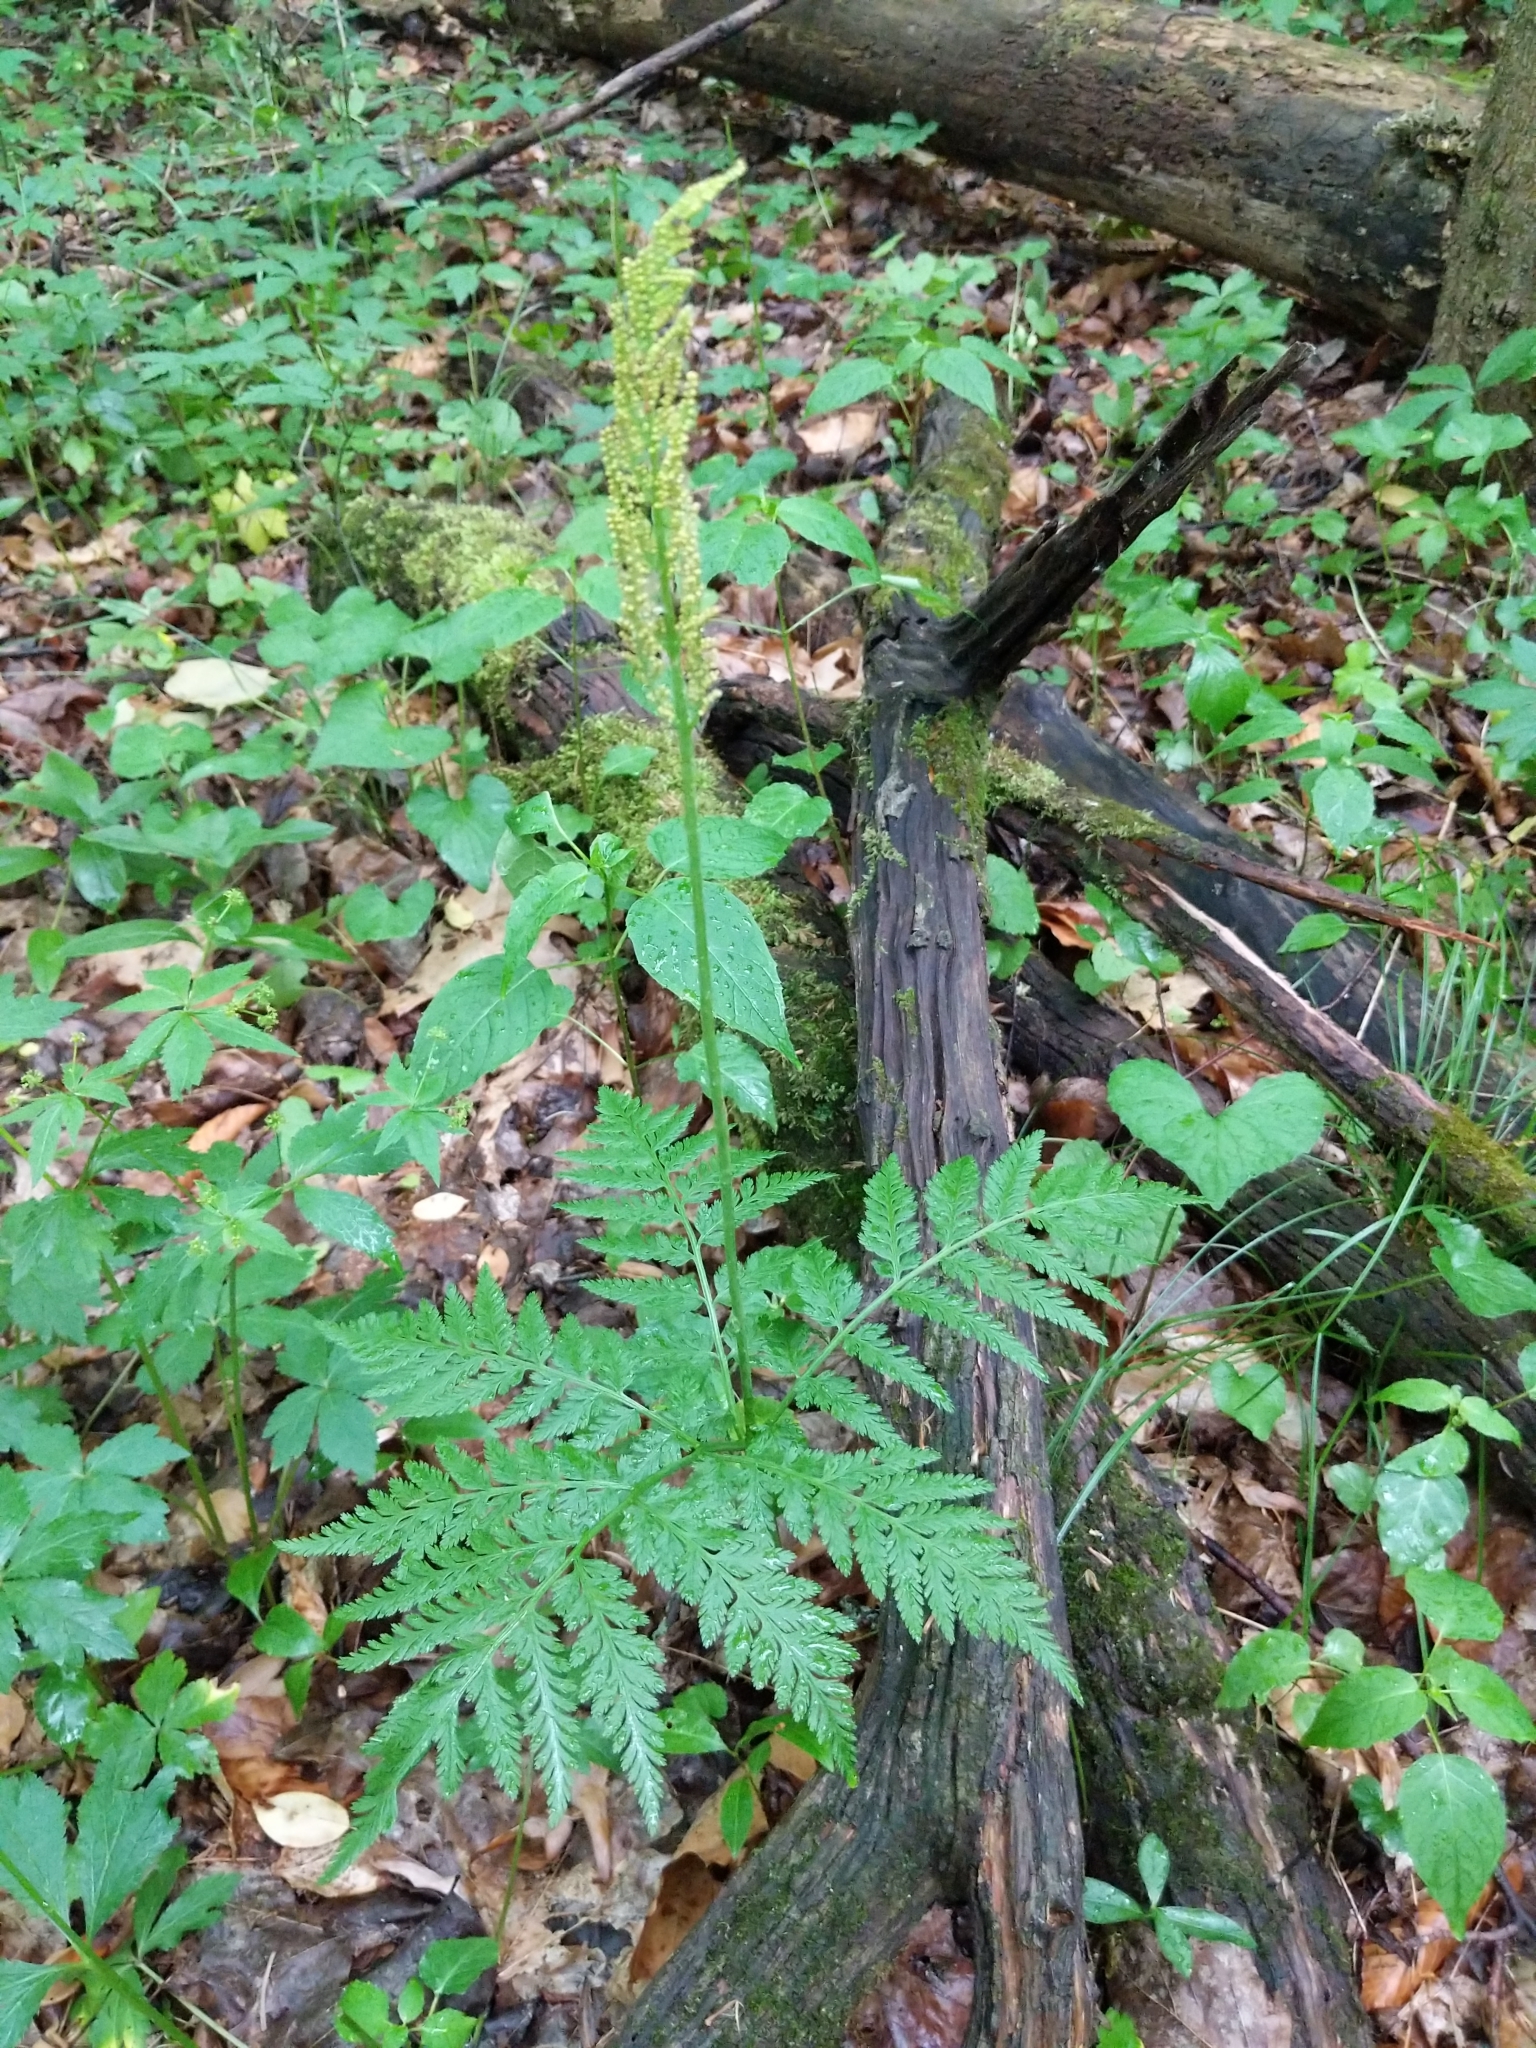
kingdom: Plantae
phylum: Tracheophyta
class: Polypodiopsida
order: Ophioglossales
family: Ophioglossaceae
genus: Botrypus
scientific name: Botrypus virginianus
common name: Common grapefern
